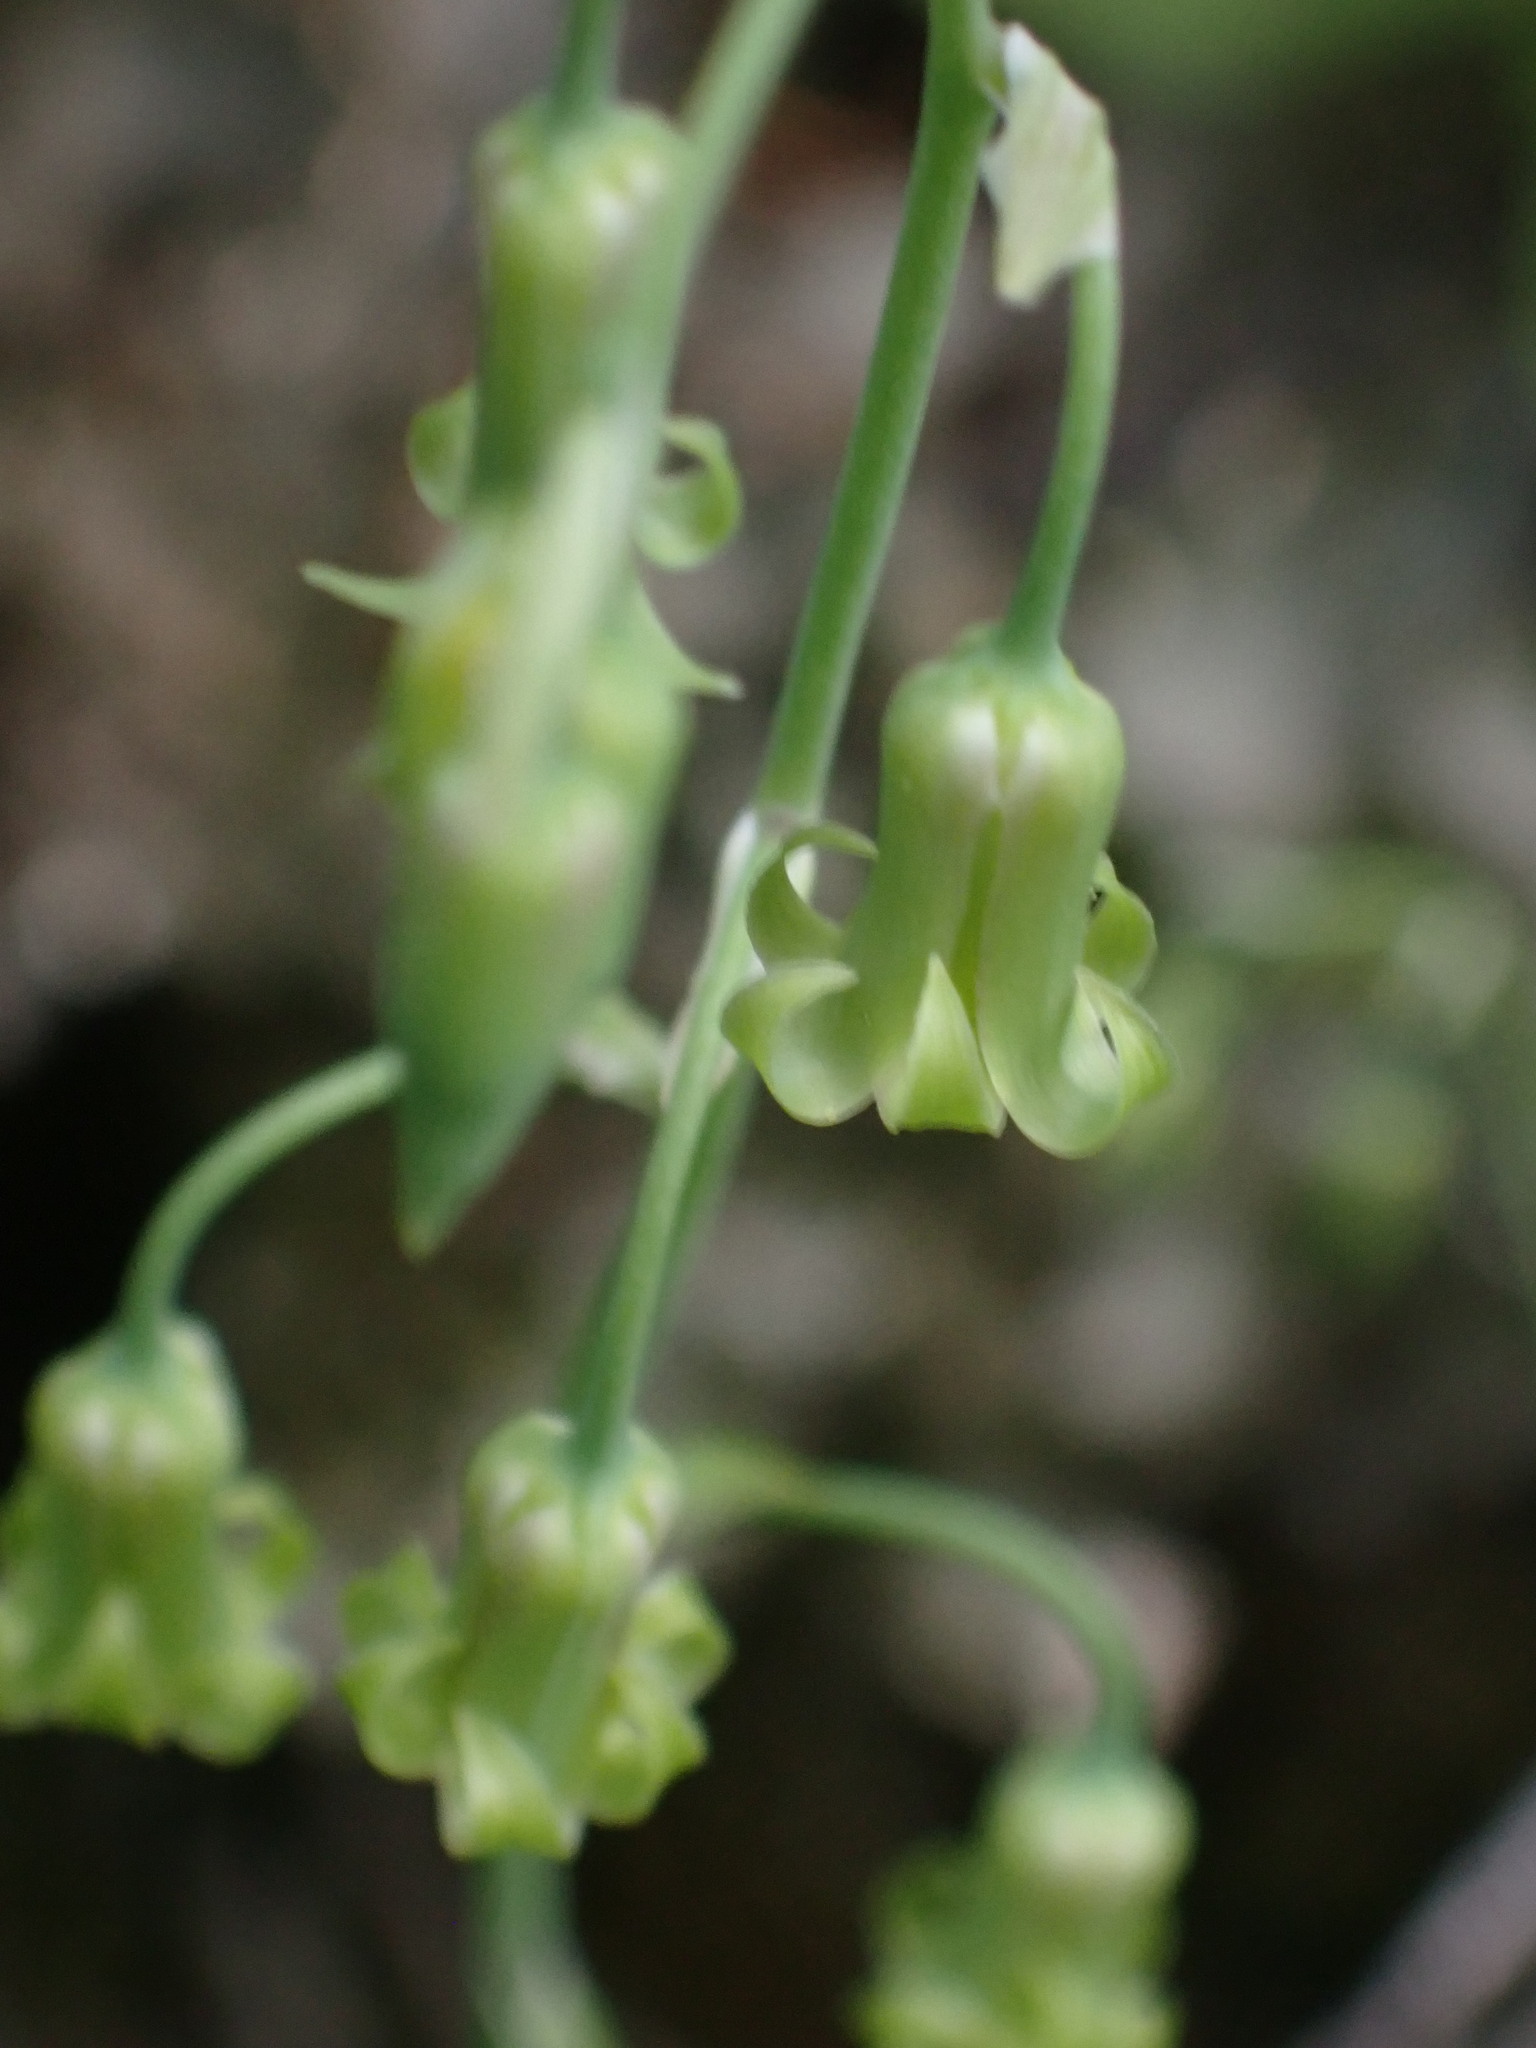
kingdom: Plantae
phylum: Tracheophyta
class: Liliopsida
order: Liliales
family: Melanthiaceae
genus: Anticlea
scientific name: Anticlea occidentalis
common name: Bronze-bells
